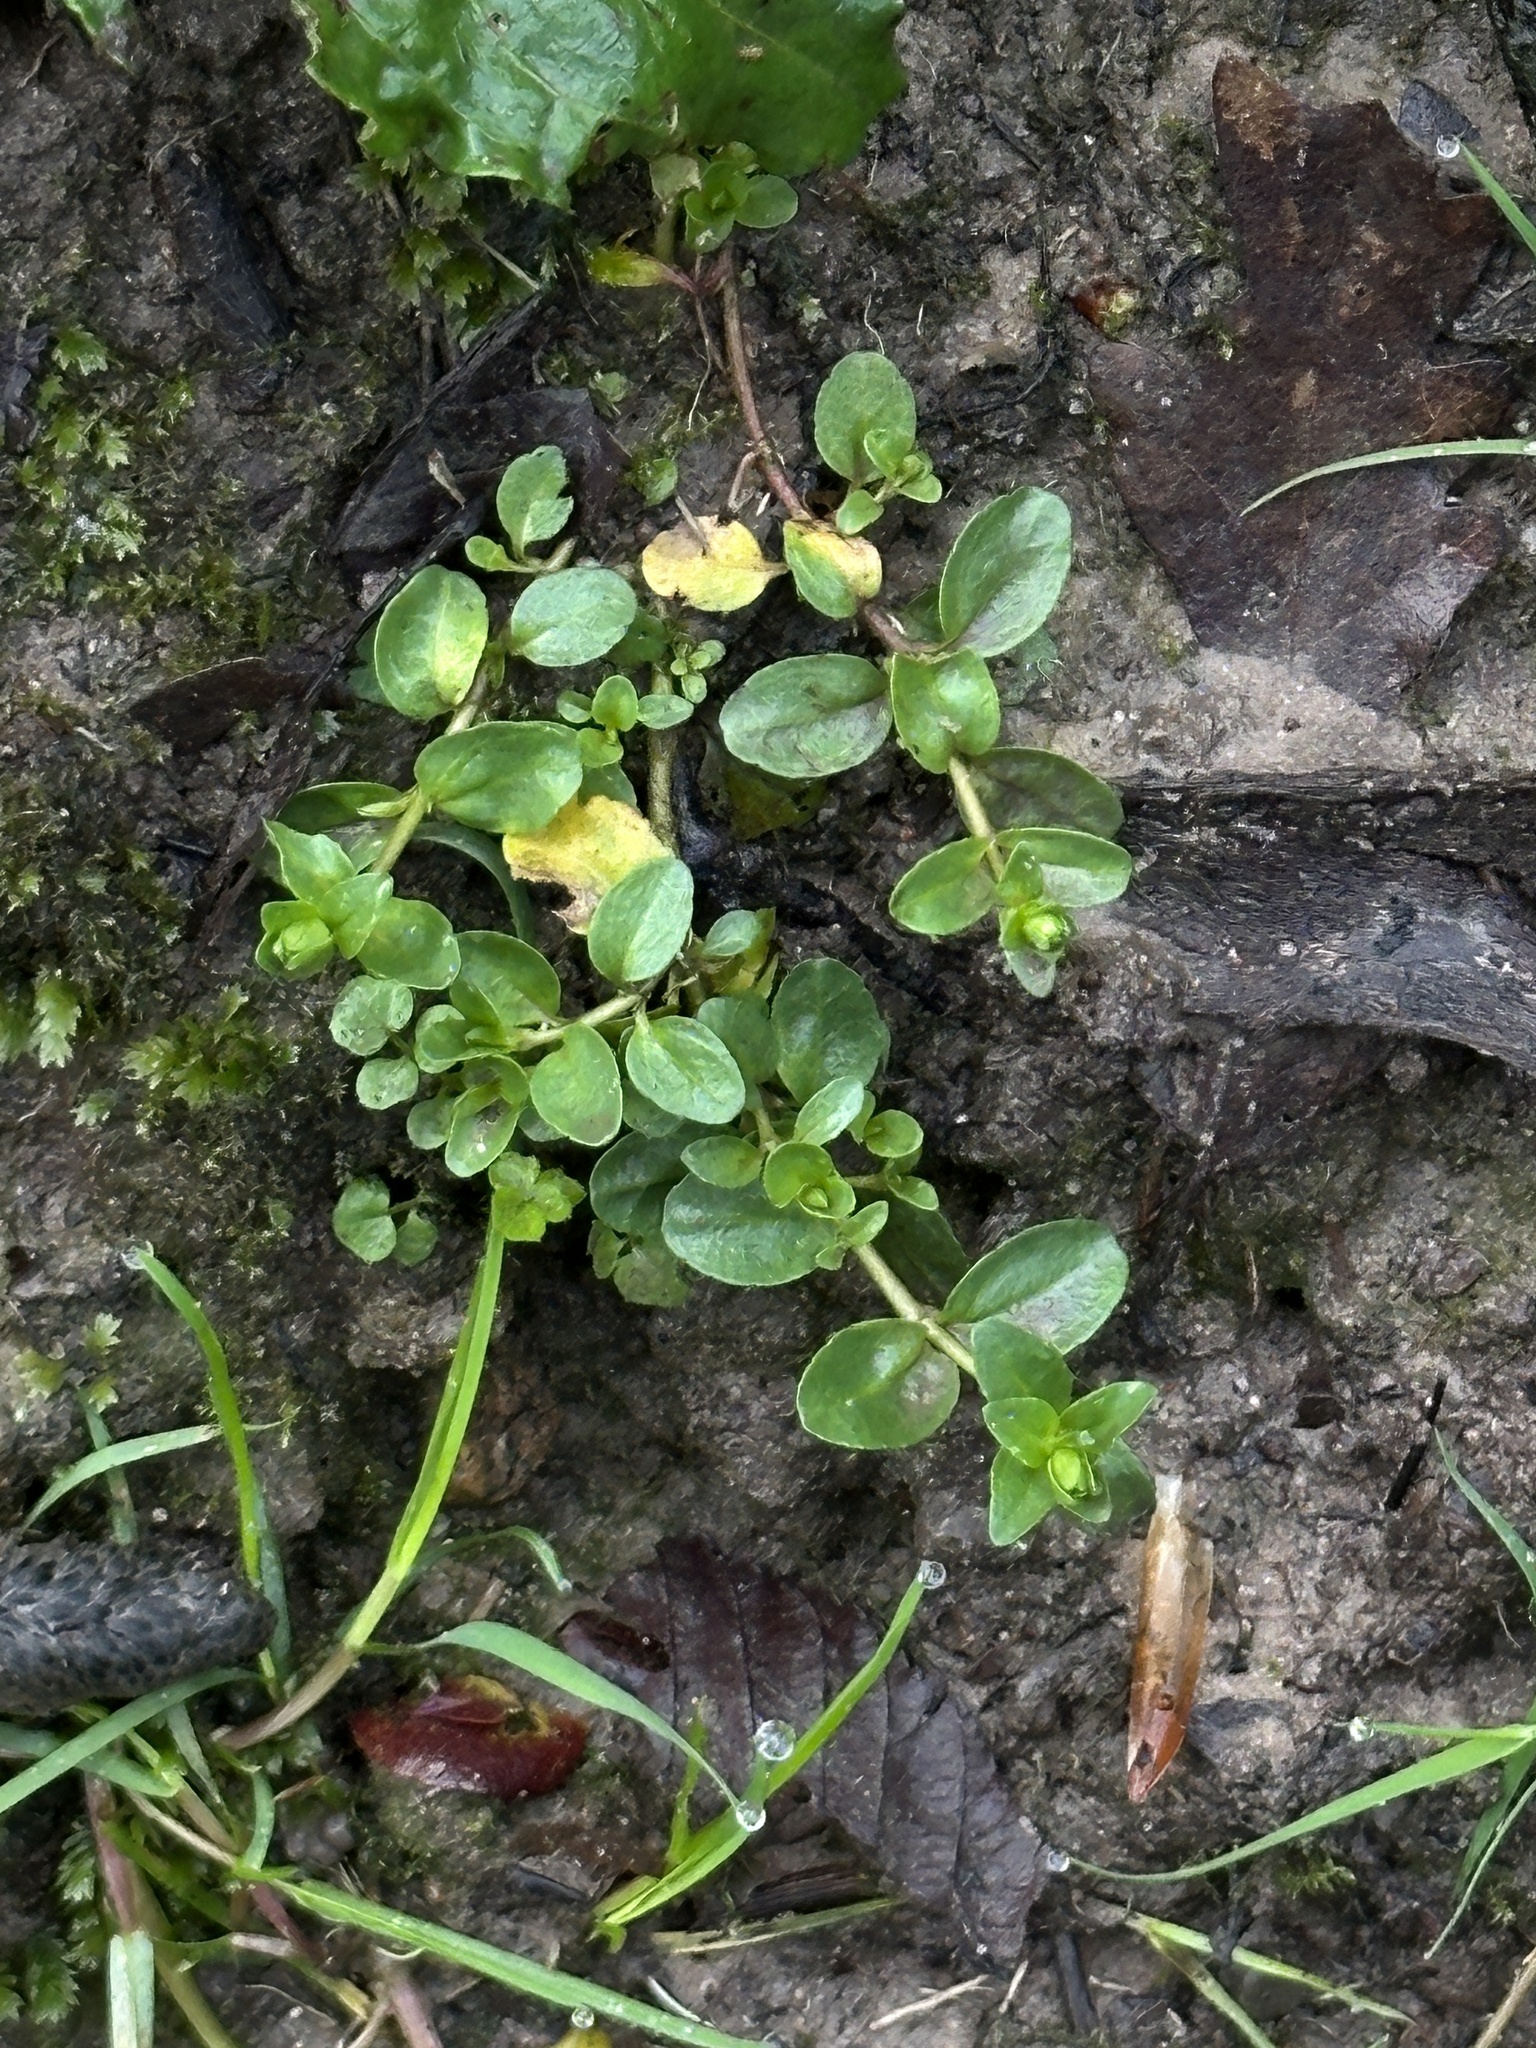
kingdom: Plantae
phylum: Tracheophyta
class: Magnoliopsida
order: Lamiales
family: Plantaginaceae
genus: Veronica
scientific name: Veronica serpyllifolia
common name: Thyme-leaved speedwell
